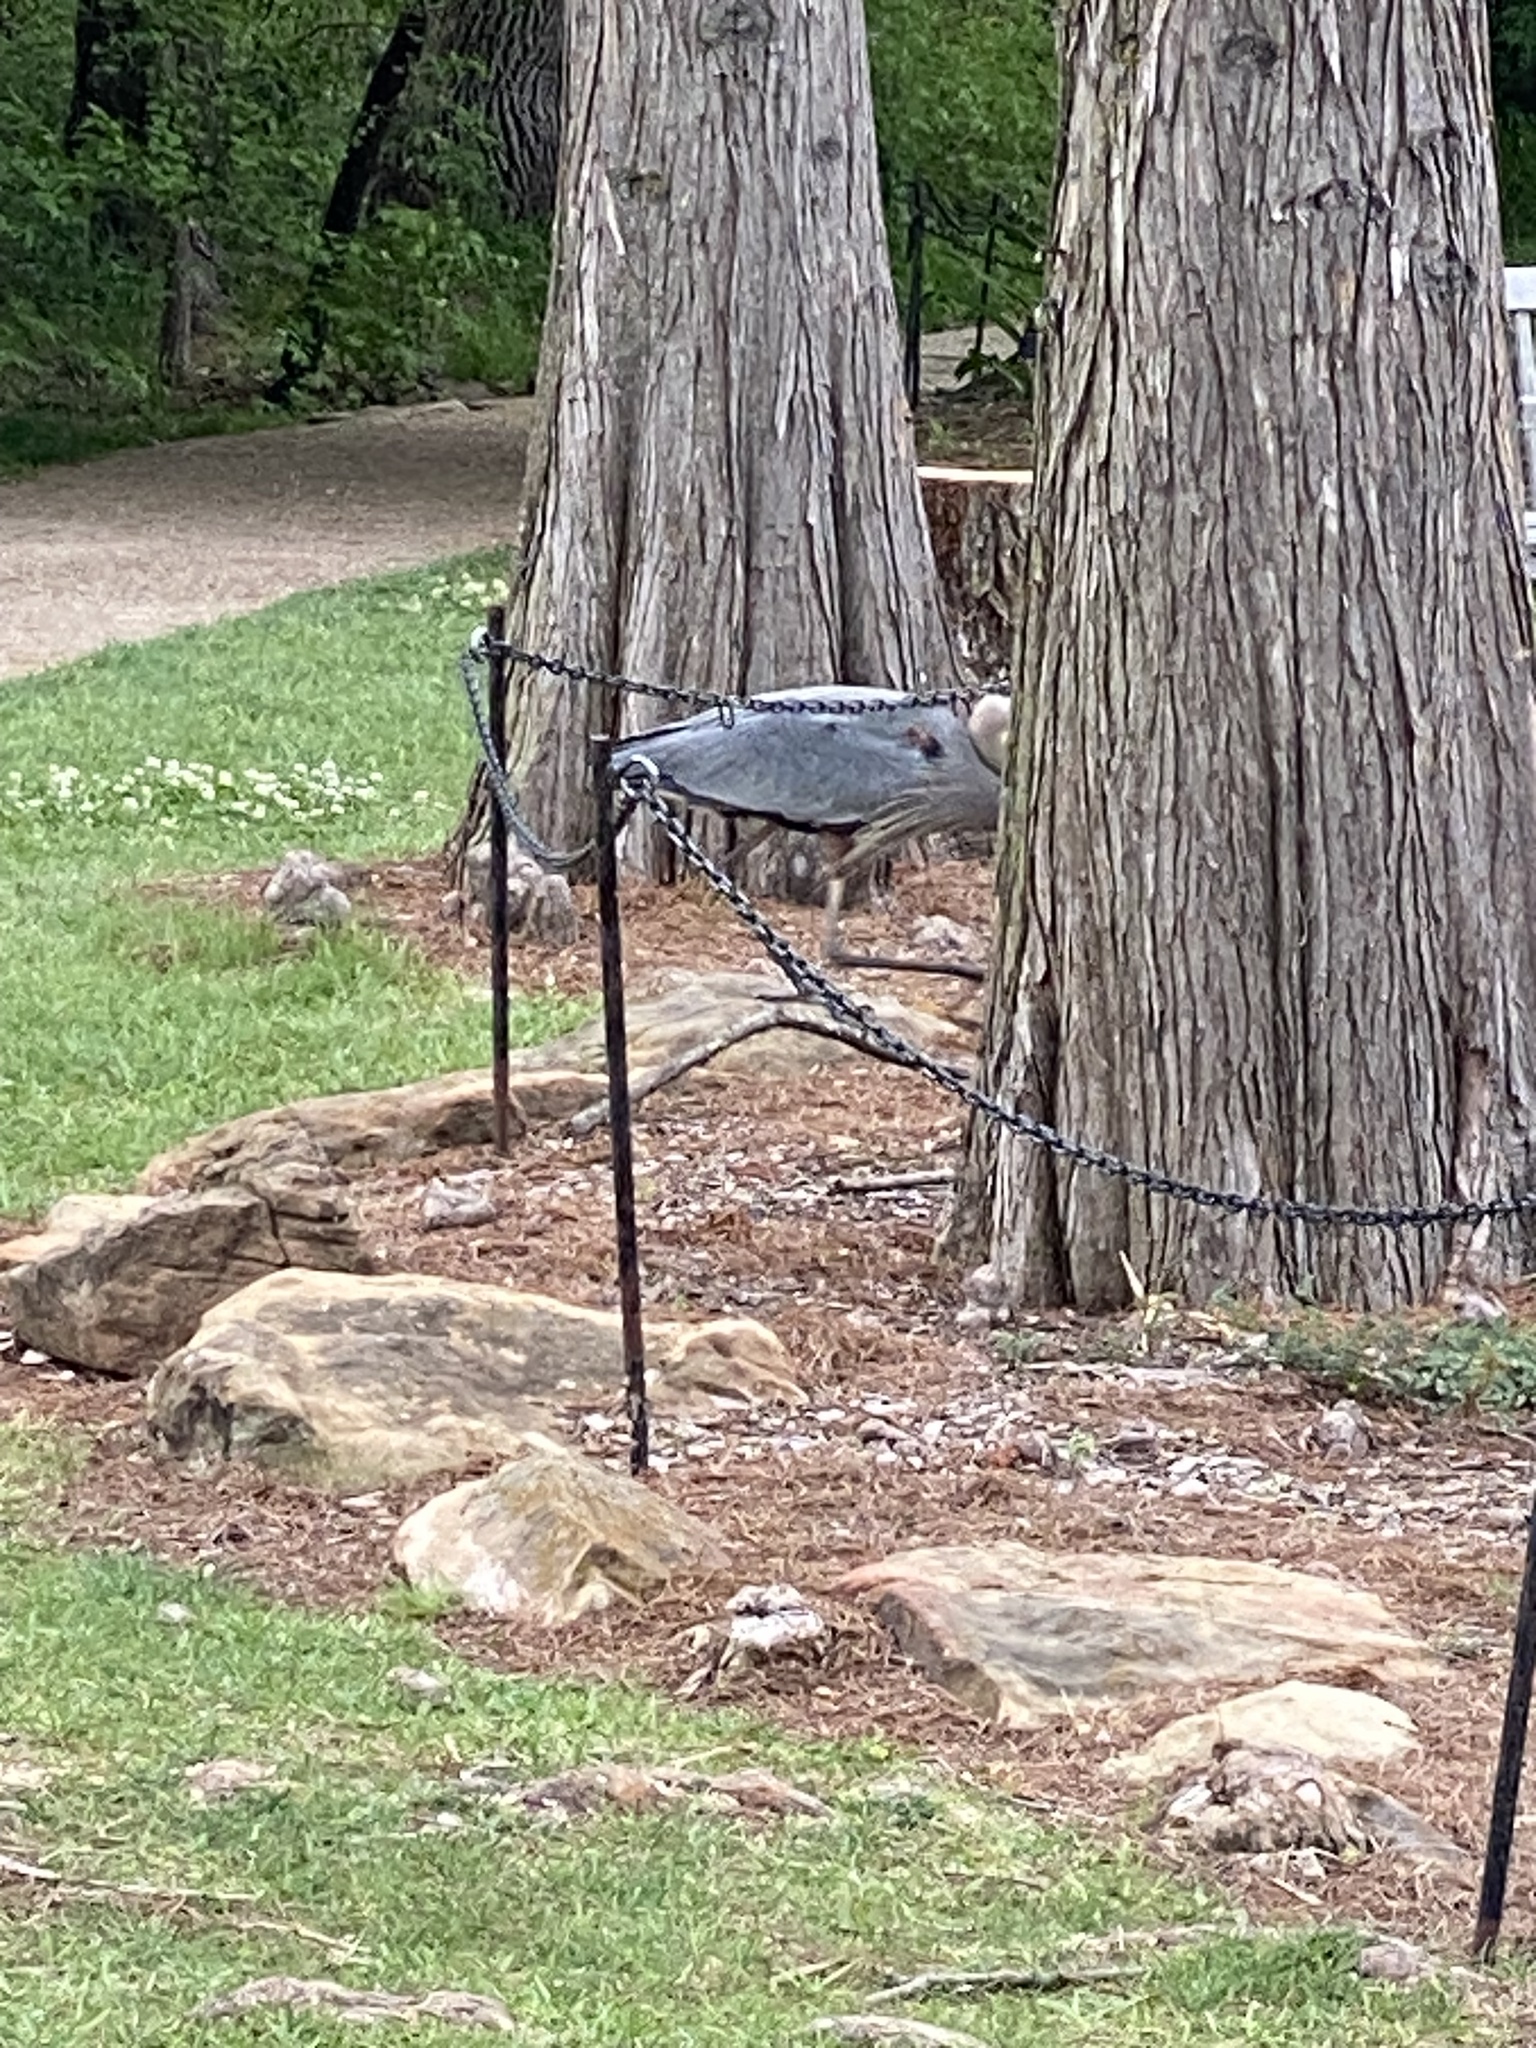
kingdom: Animalia
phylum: Chordata
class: Aves
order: Pelecaniformes
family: Ardeidae
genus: Ardea
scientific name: Ardea herodias
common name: Great blue heron
